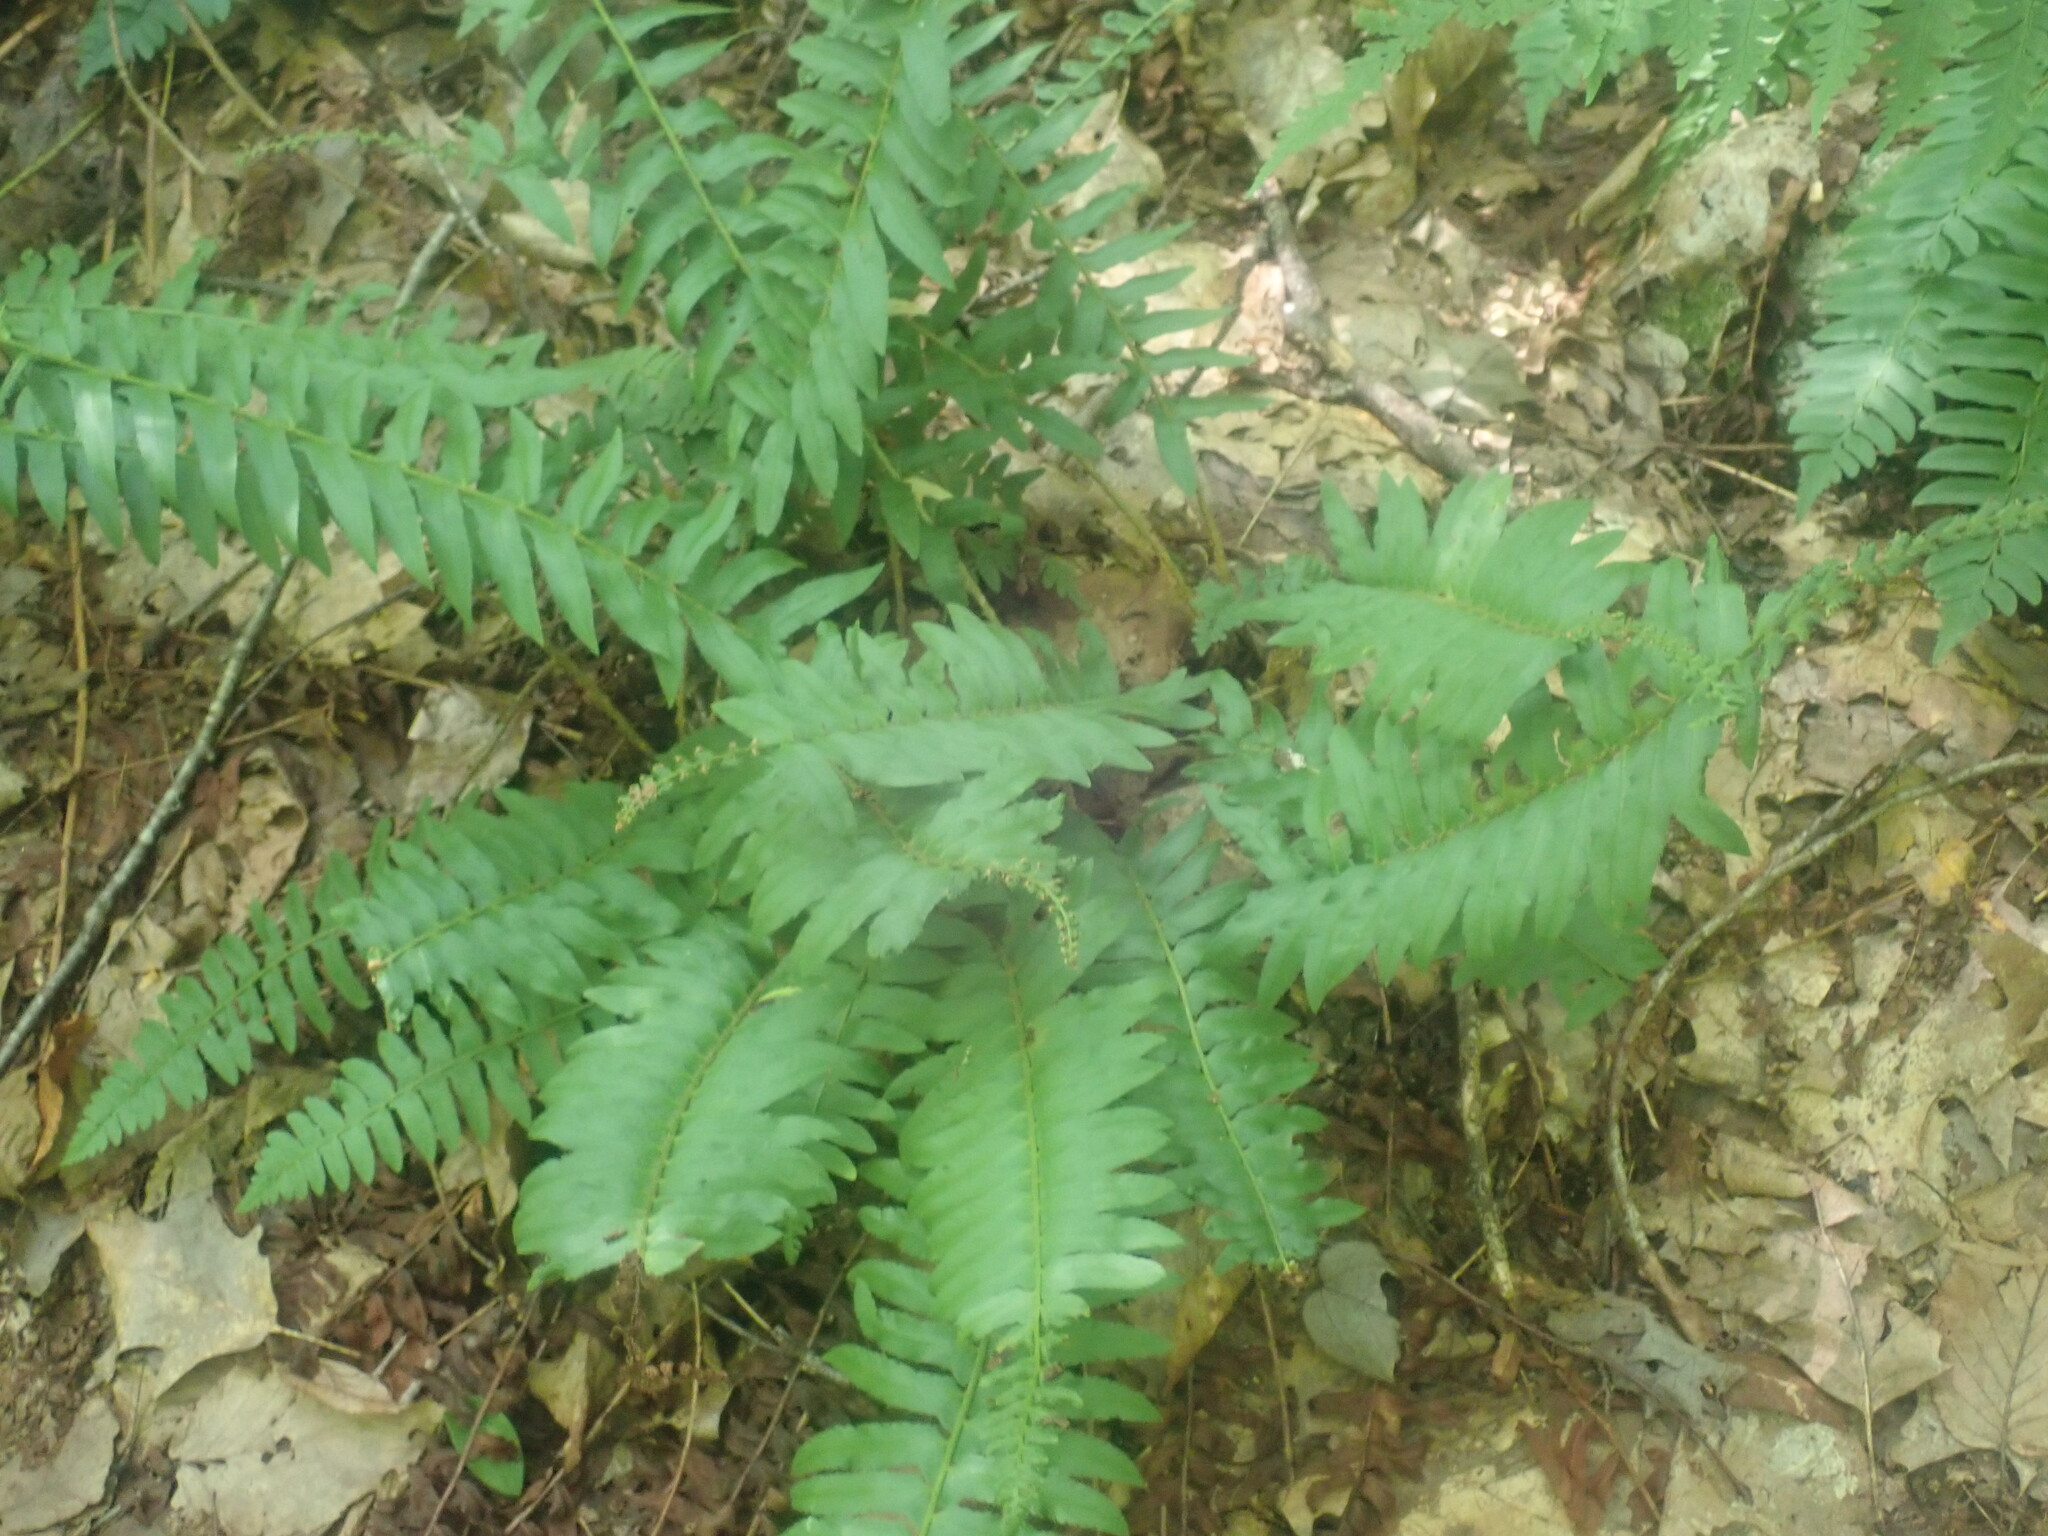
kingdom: Plantae
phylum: Tracheophyta
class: Polypodiopsida
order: Polypodiales
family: Dryopteridaceae
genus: Polystichum
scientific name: Polystichum acrostichoides
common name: Christmas fern
